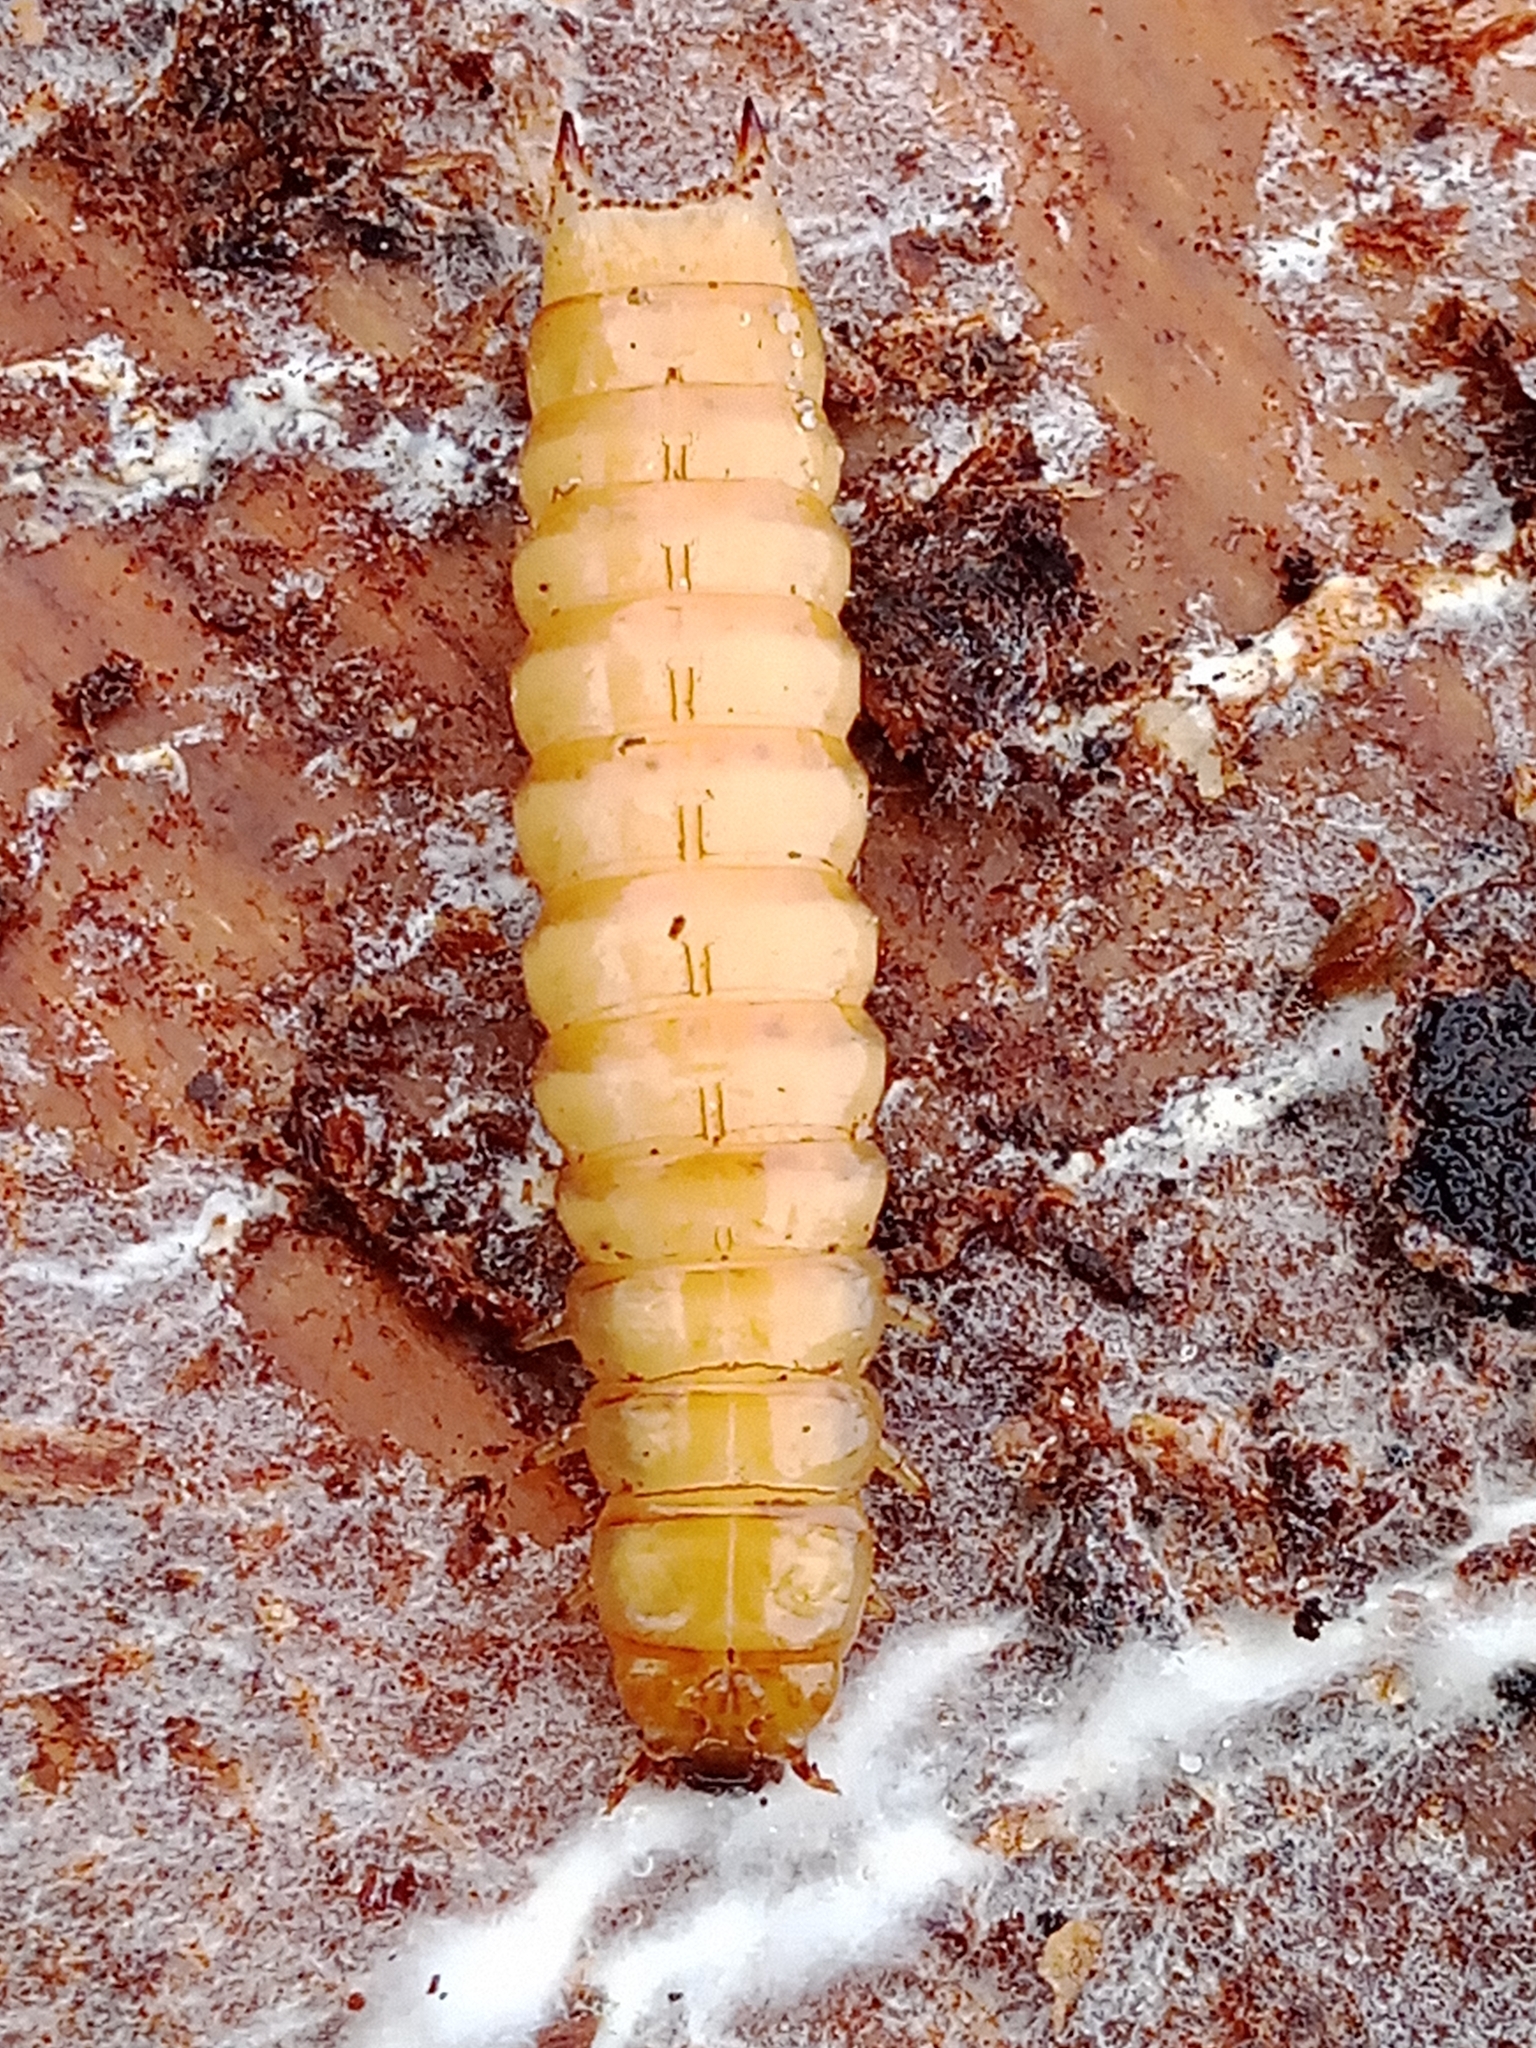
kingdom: Animalia
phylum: Arthropoda
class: Insecta
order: Coleoptera
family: Pythidae
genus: Pytho
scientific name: Pytho depressus
